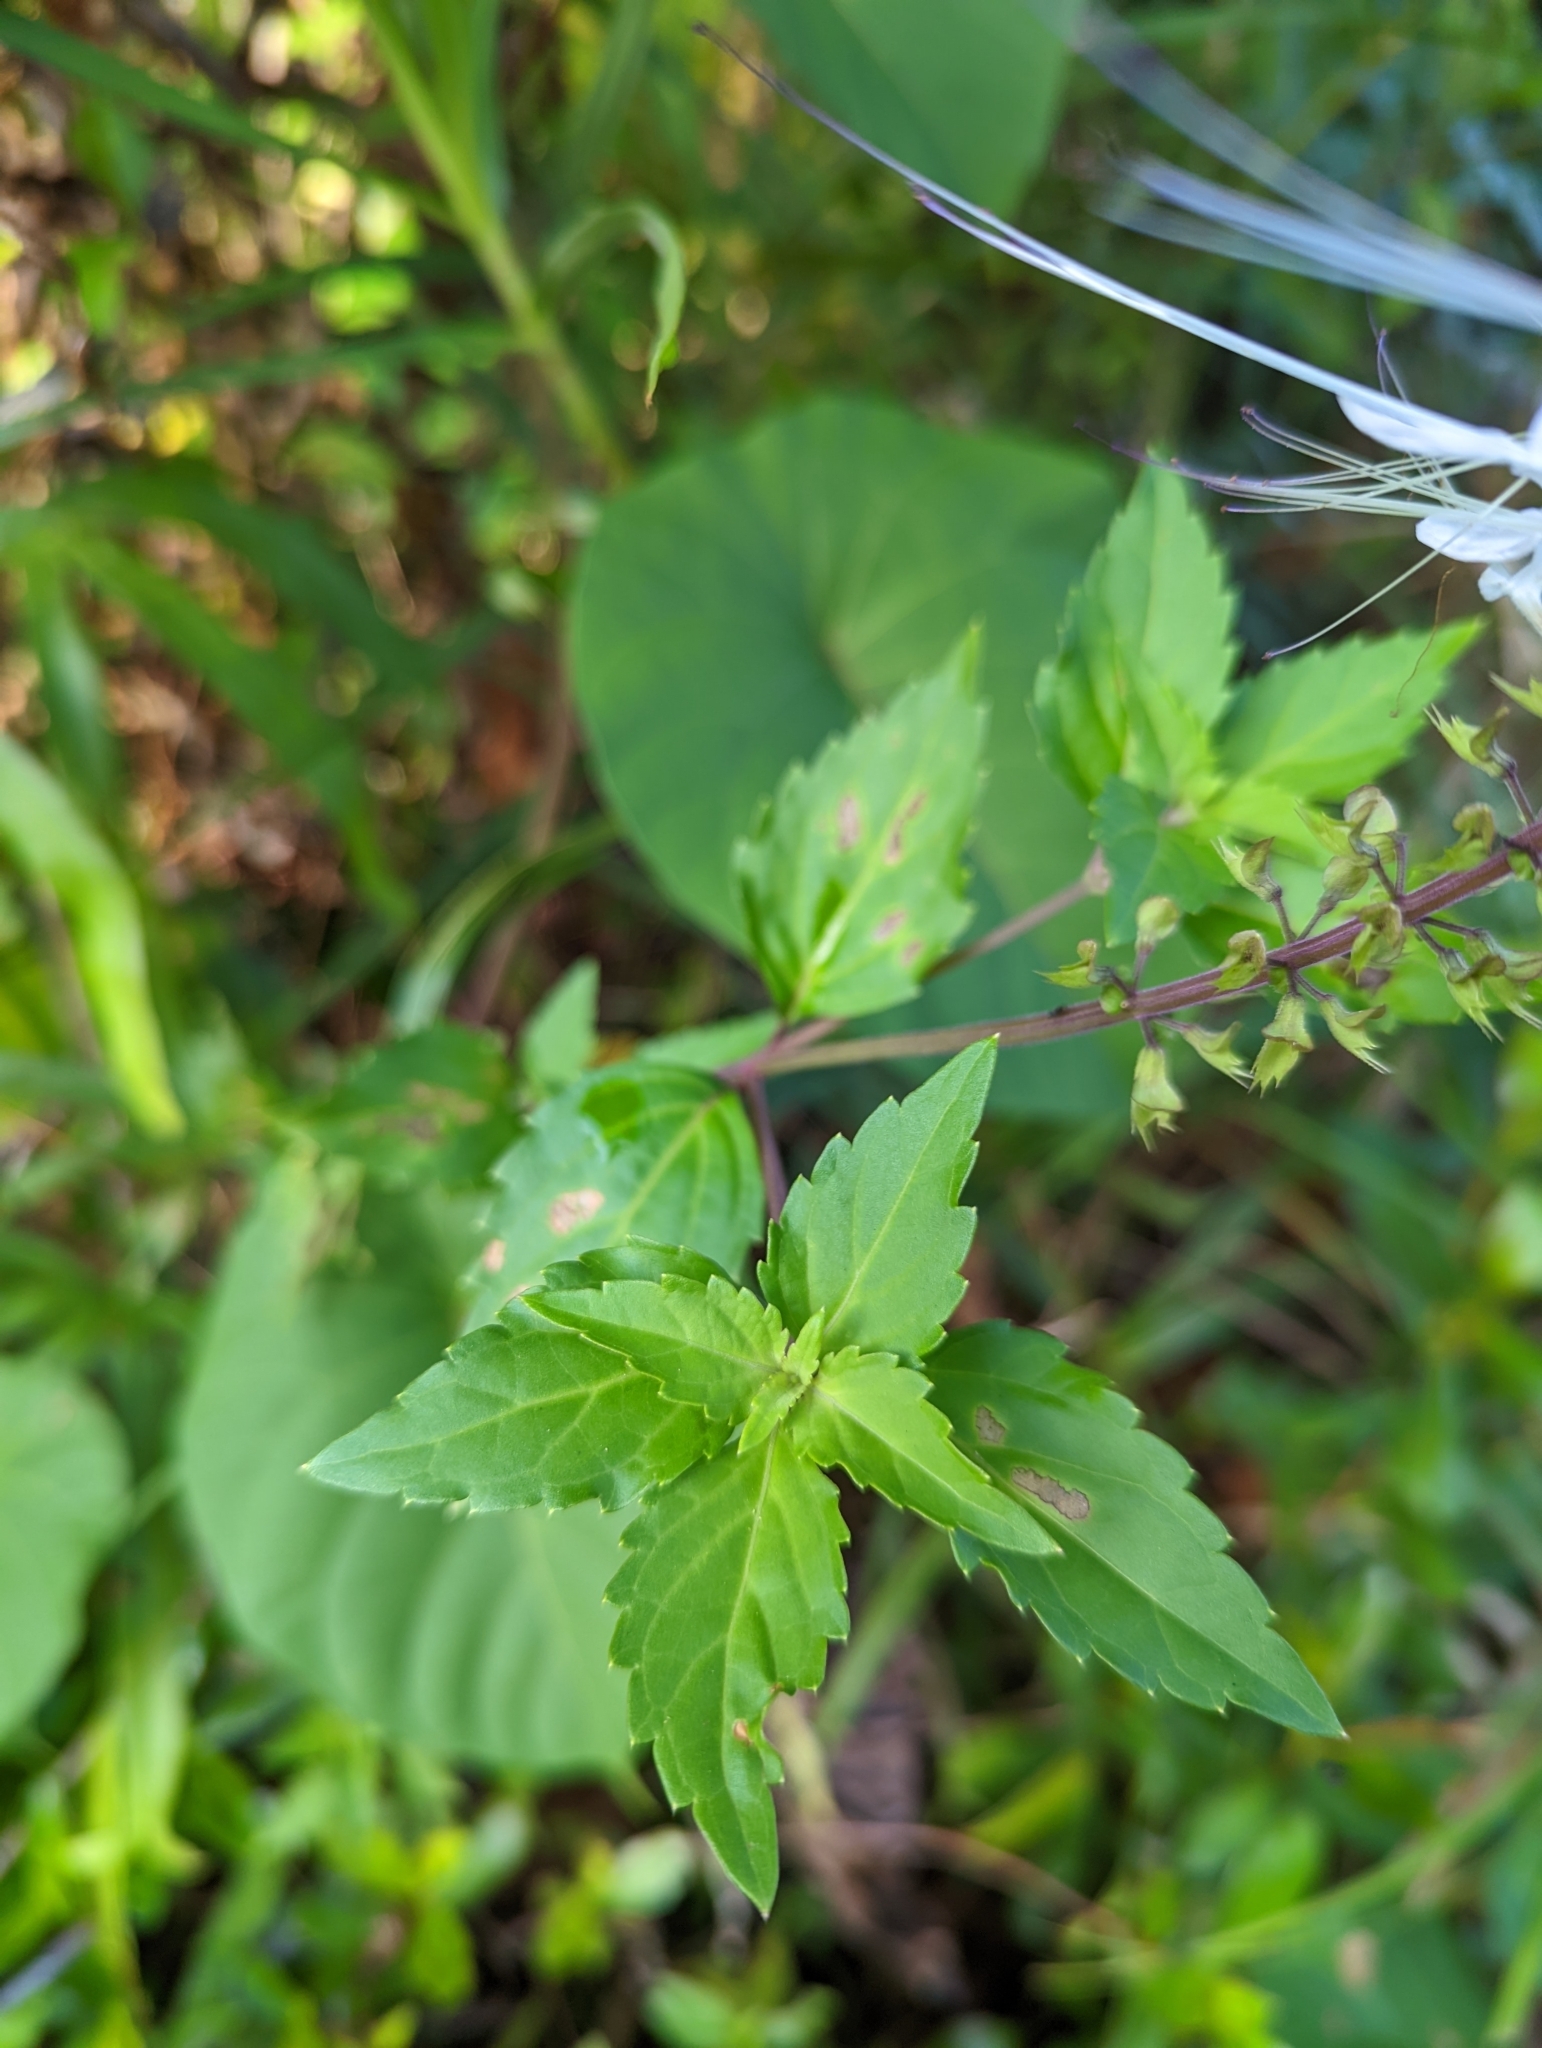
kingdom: Plantae
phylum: Tracheophyta
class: Magnoliopsida
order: Lamiales
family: Lamiaceae
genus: Orthosiphon
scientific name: Orthosiphon aristatus
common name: Whiskerplant
